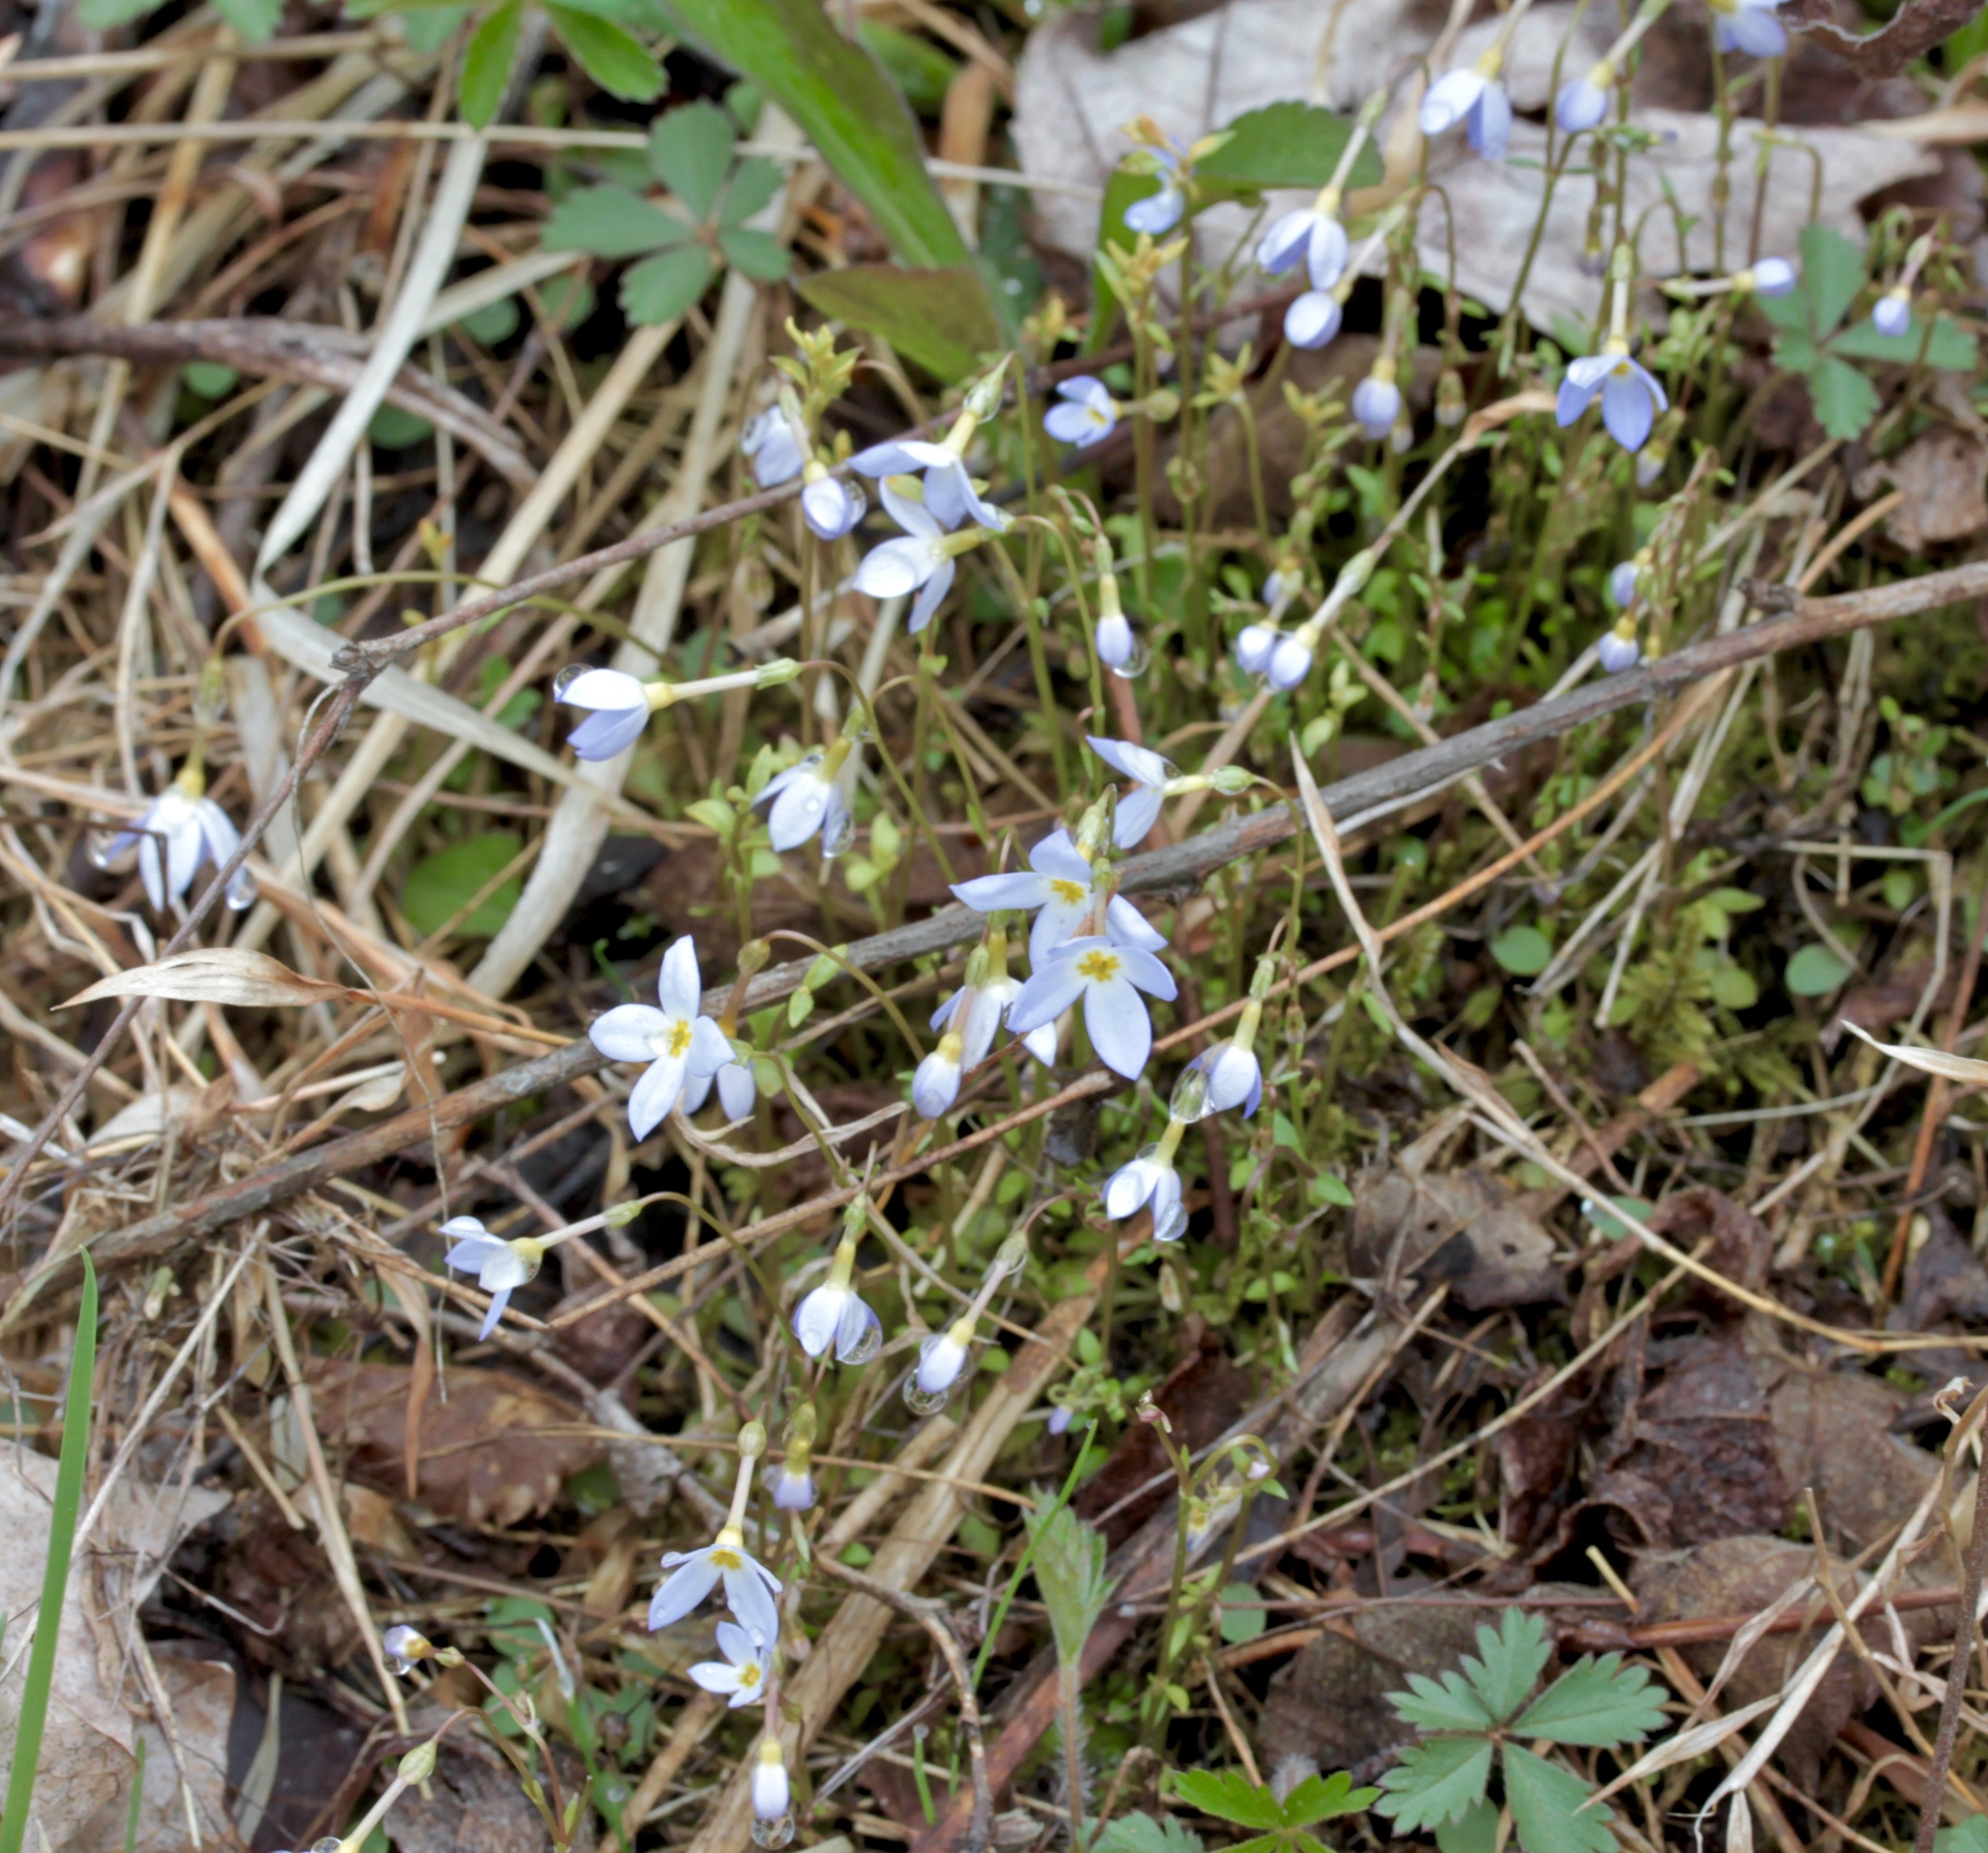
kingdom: Plantae
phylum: Tracheophyta
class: Magnoliopsida
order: Gentianales
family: Rubiaceae
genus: Houstonia
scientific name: Houstonia caerulea
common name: Bluets
